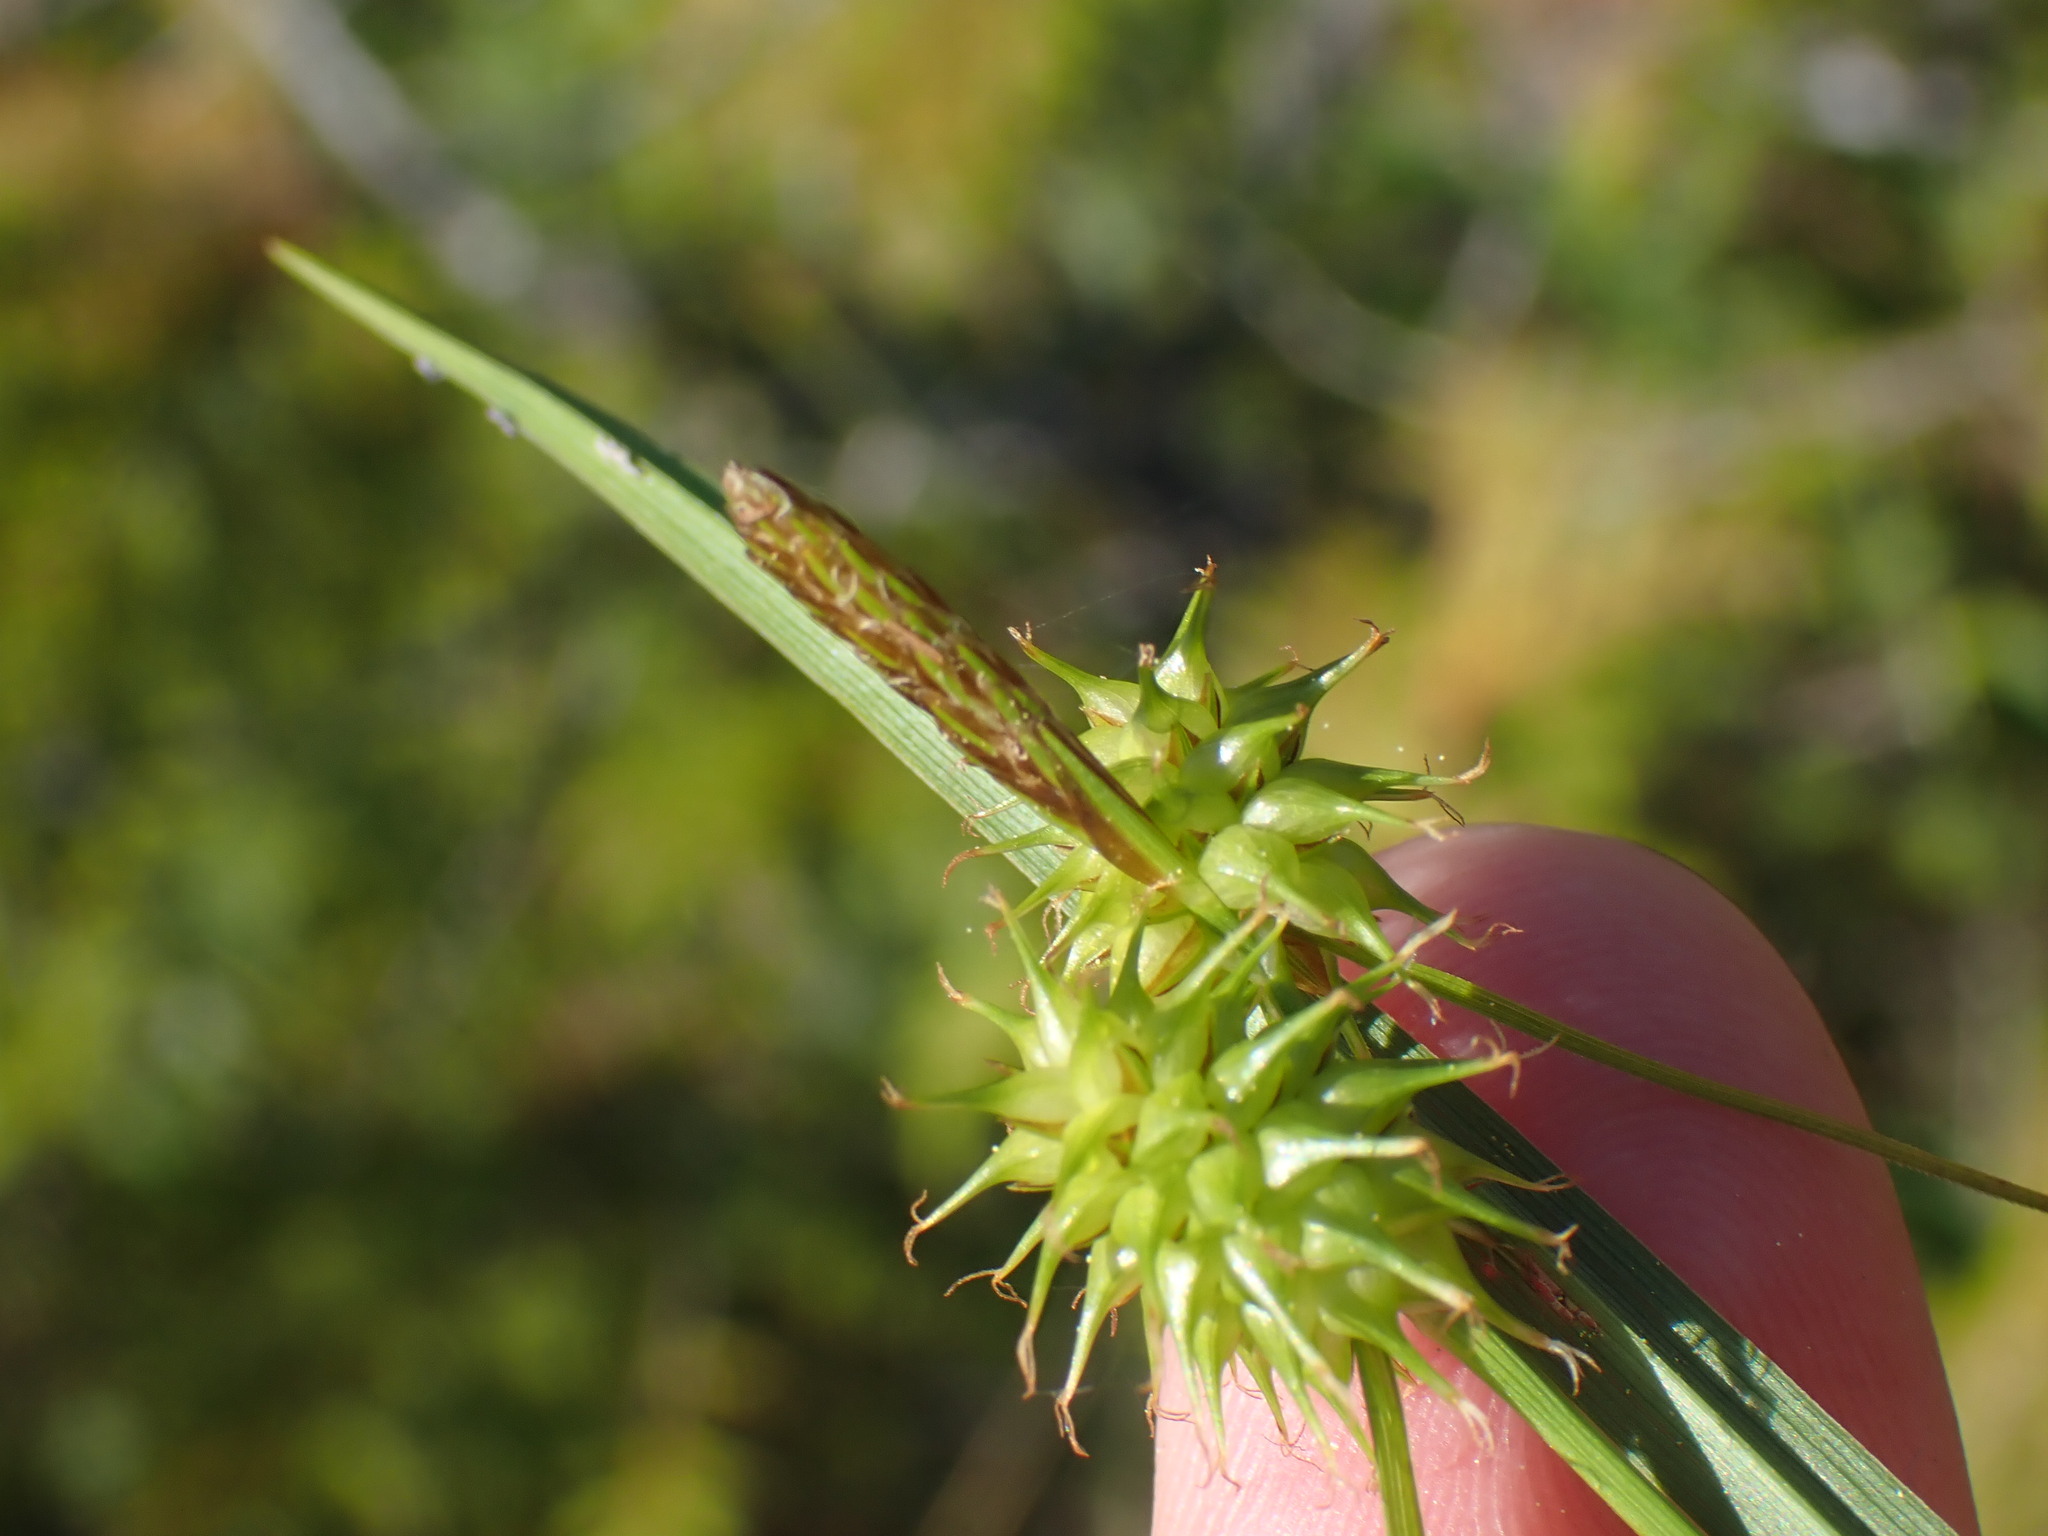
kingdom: Plantae
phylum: Tracheophyta
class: Liliopsida
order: Poales
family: Cyperaceae
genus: Carex
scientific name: Carex flava
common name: Large yellow-sedge
